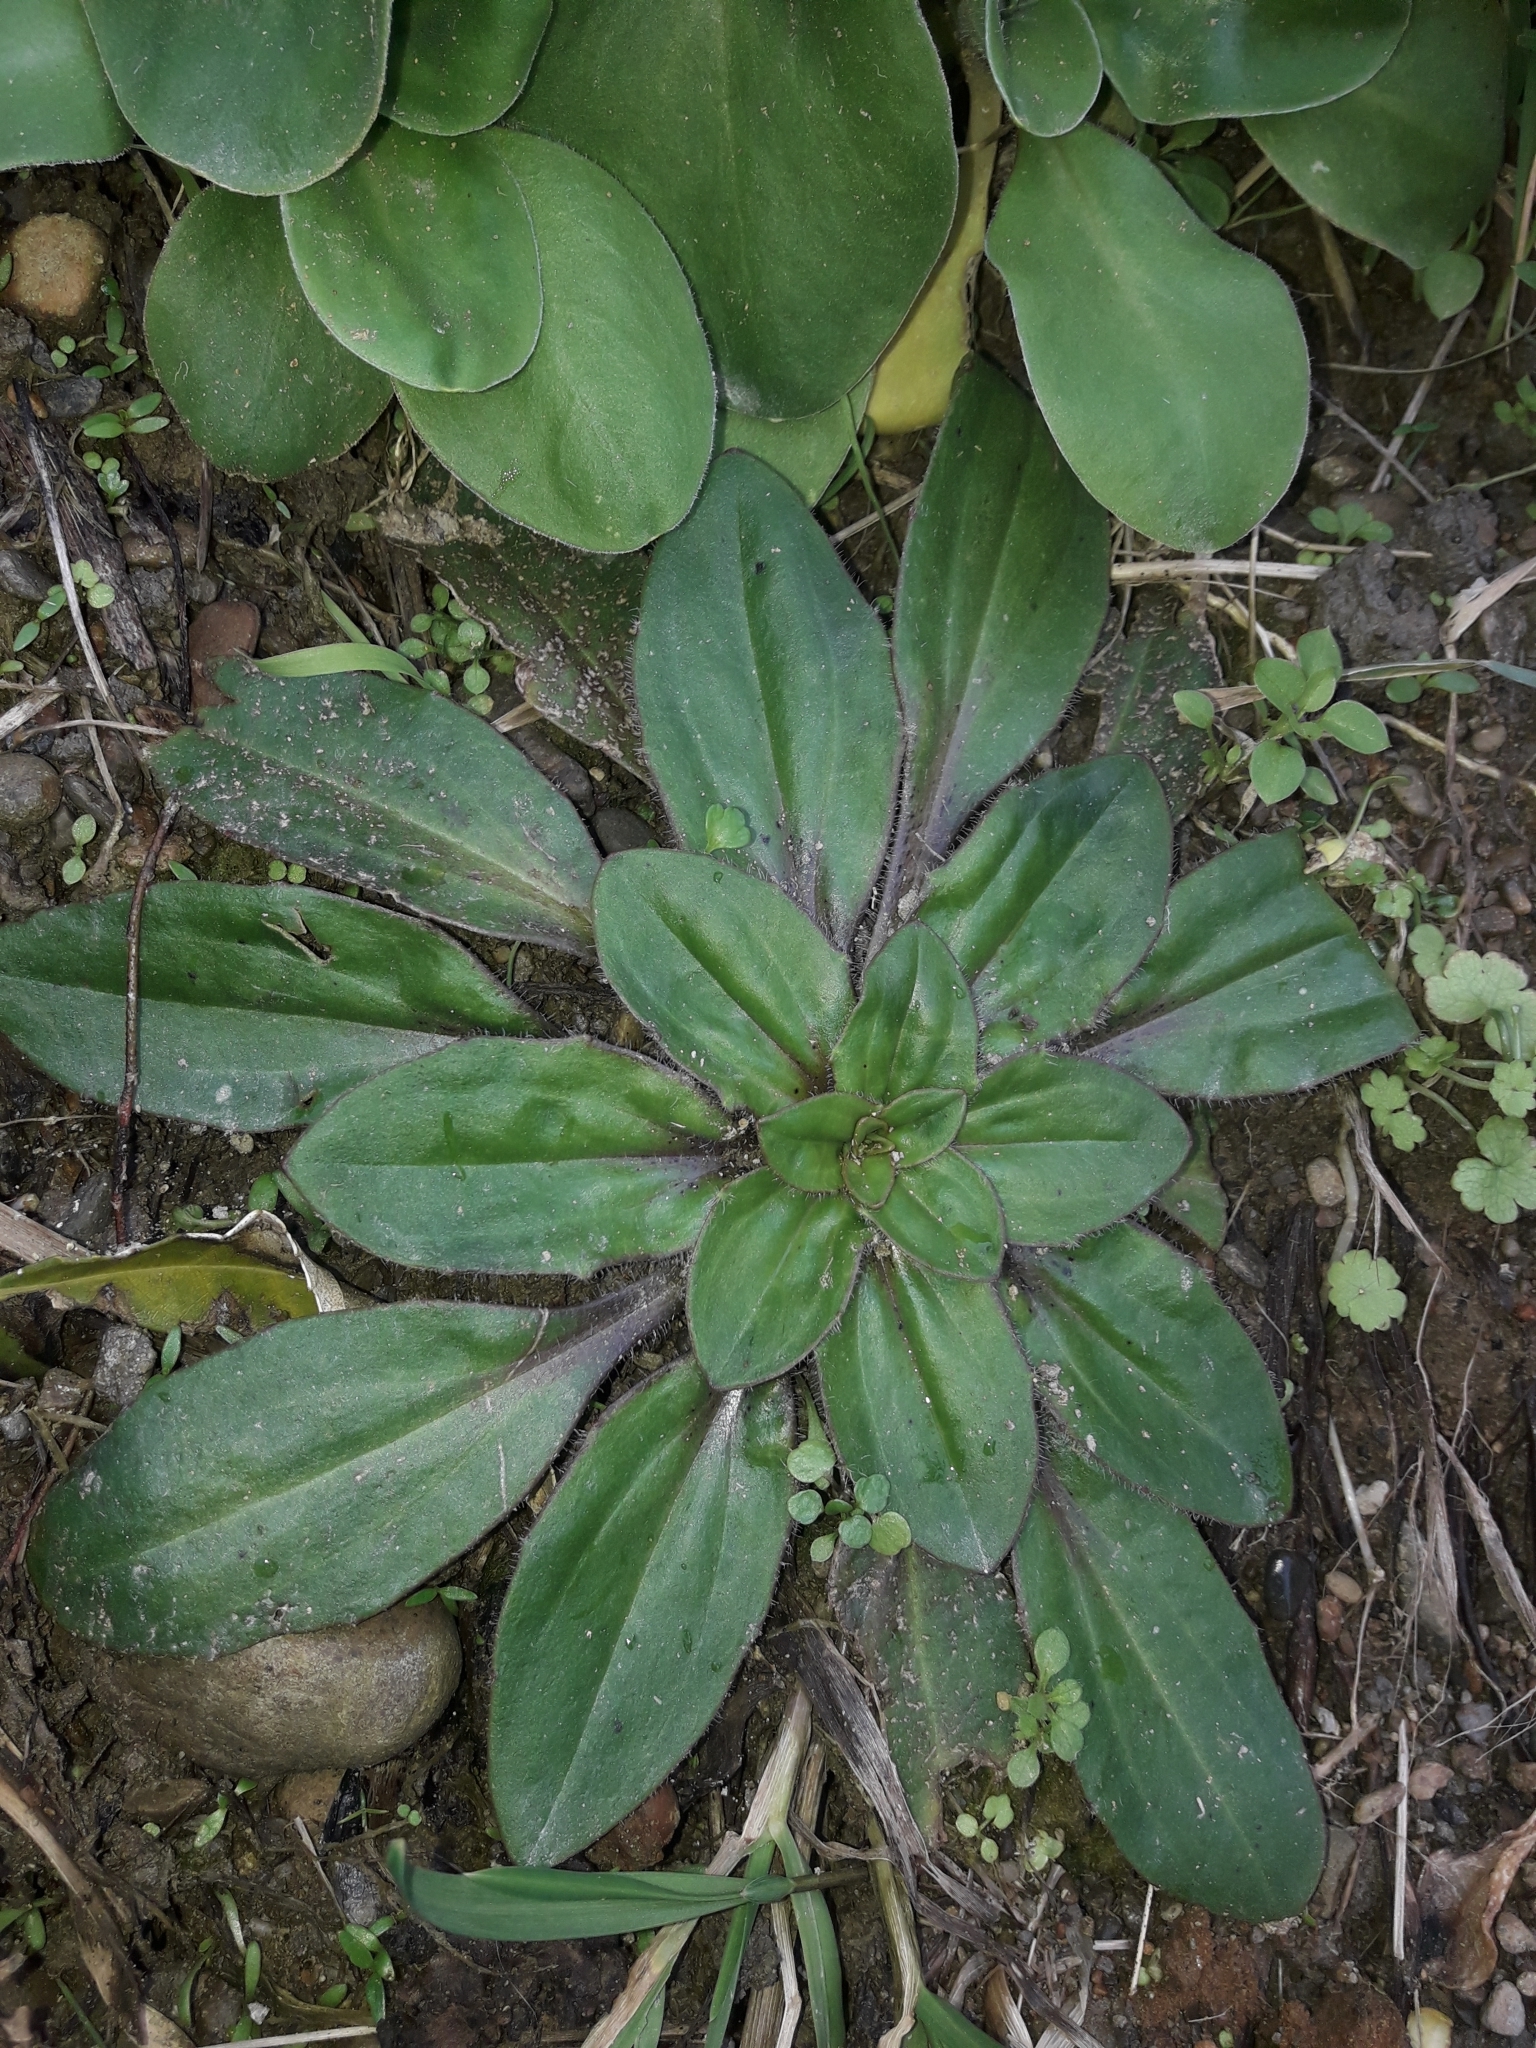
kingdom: Plantae
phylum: Tracheophyta
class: Magnoliopsida
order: Lamiales
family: Plantaginaceae
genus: Plantago
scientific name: Plantago raoulii
